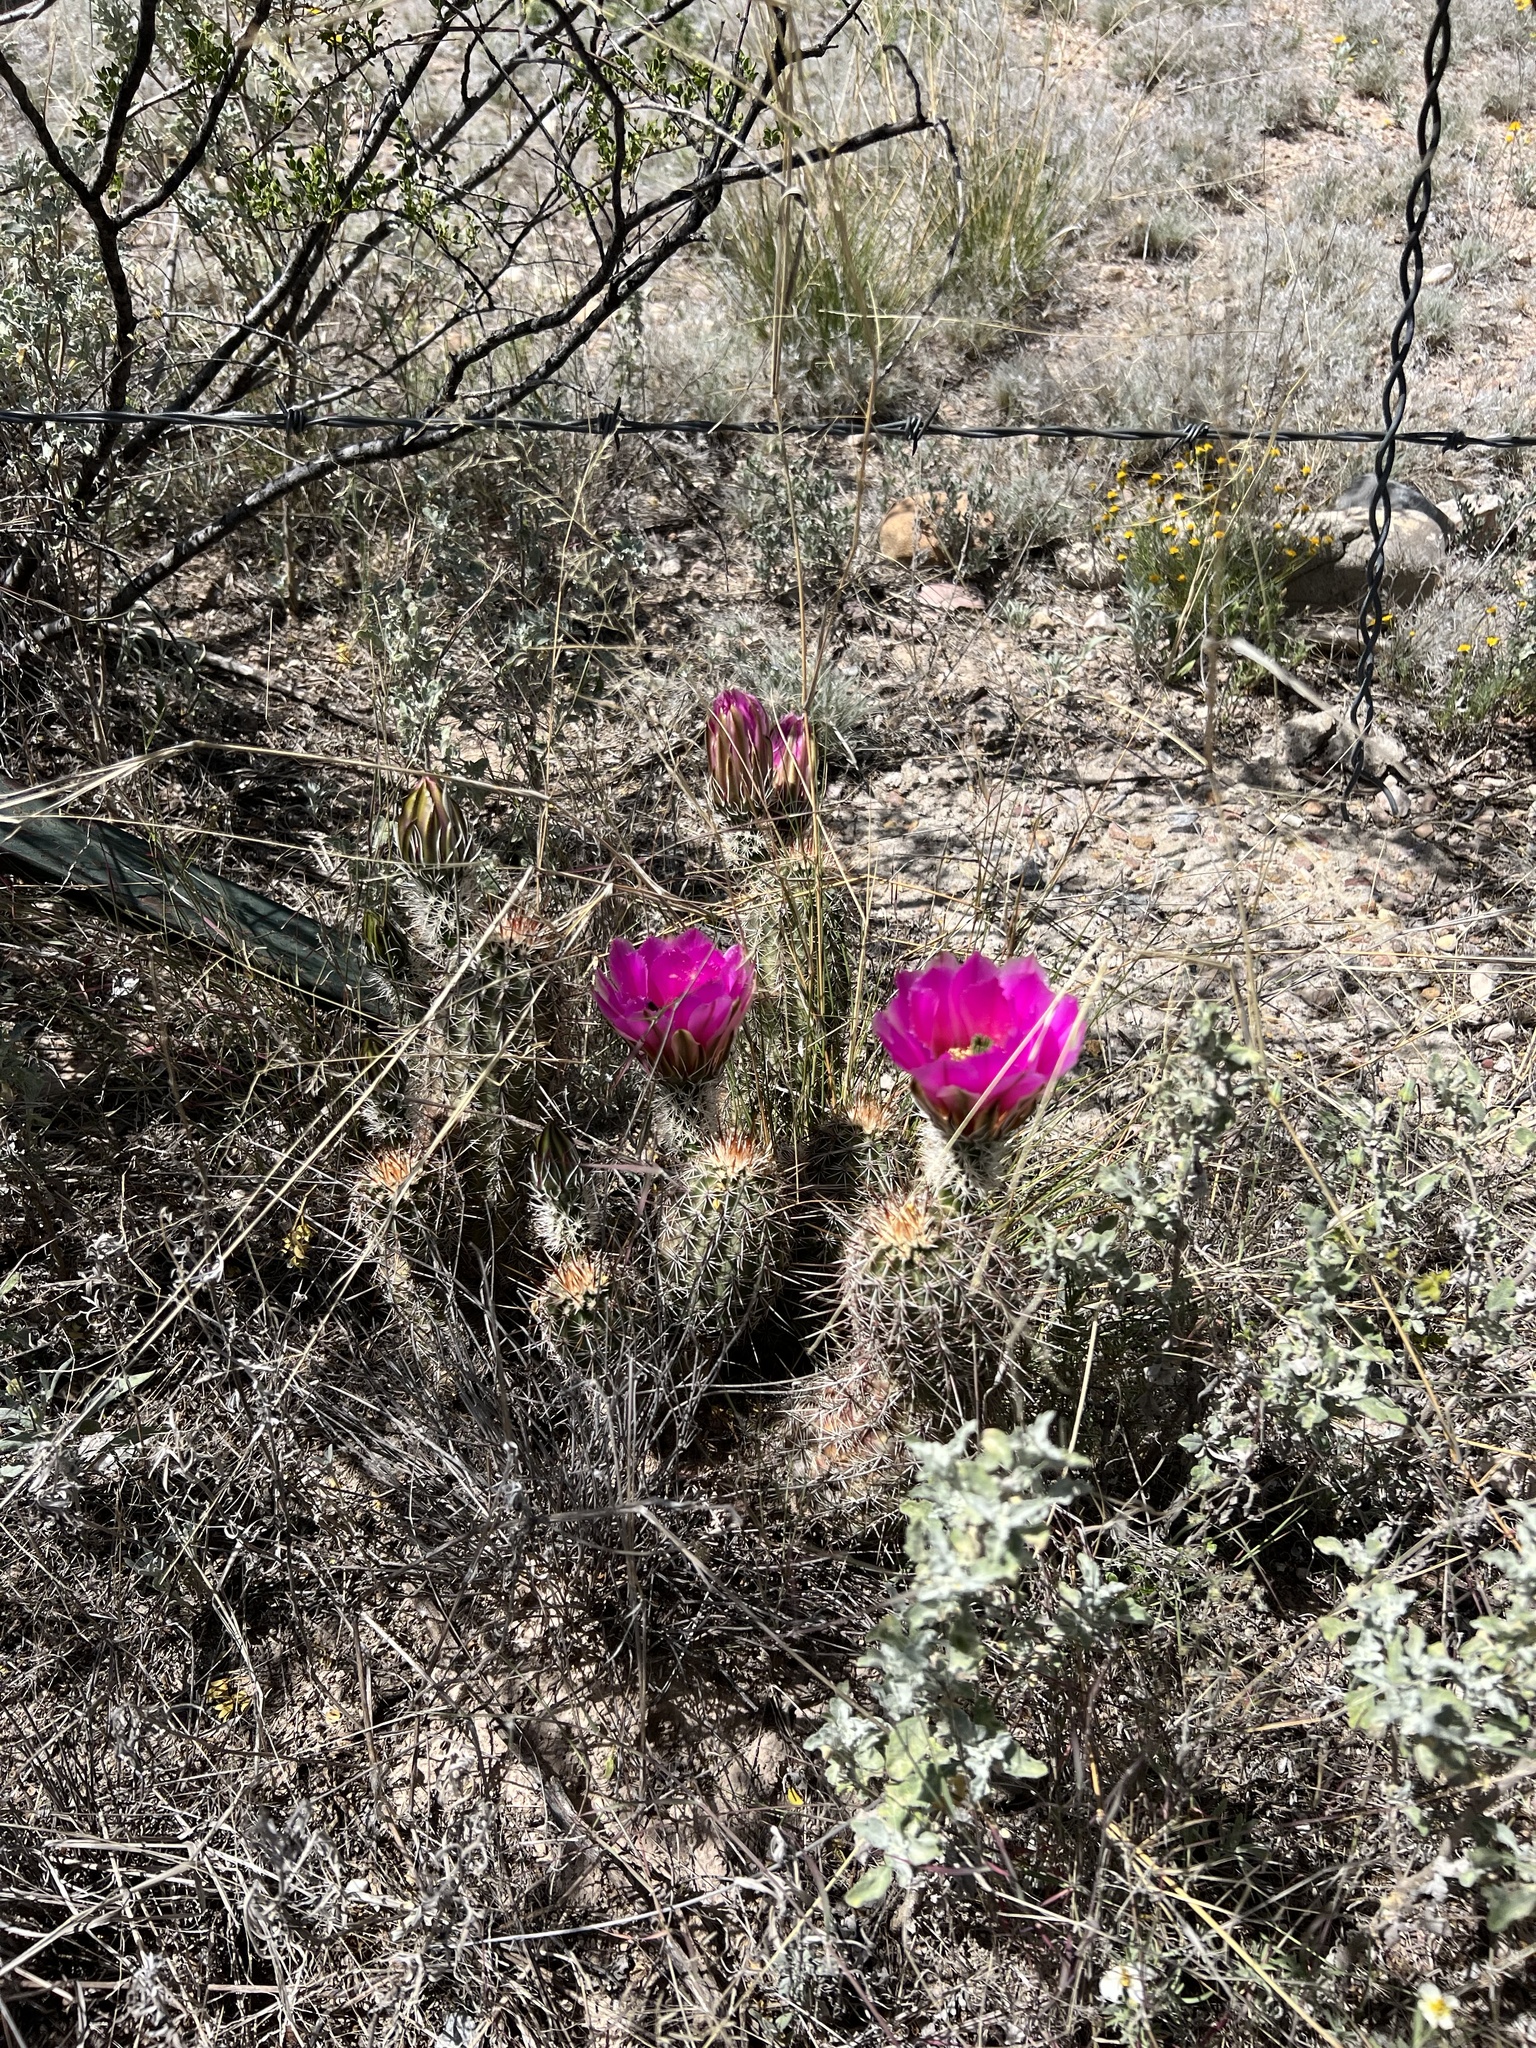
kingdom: Plantae
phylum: Tracheophyta
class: Magnoliopsida
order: Caryophyllales
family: Cactaceae
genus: Echinocereus
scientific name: Echinocereus fasciculatus
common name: Bundle hedgehog
